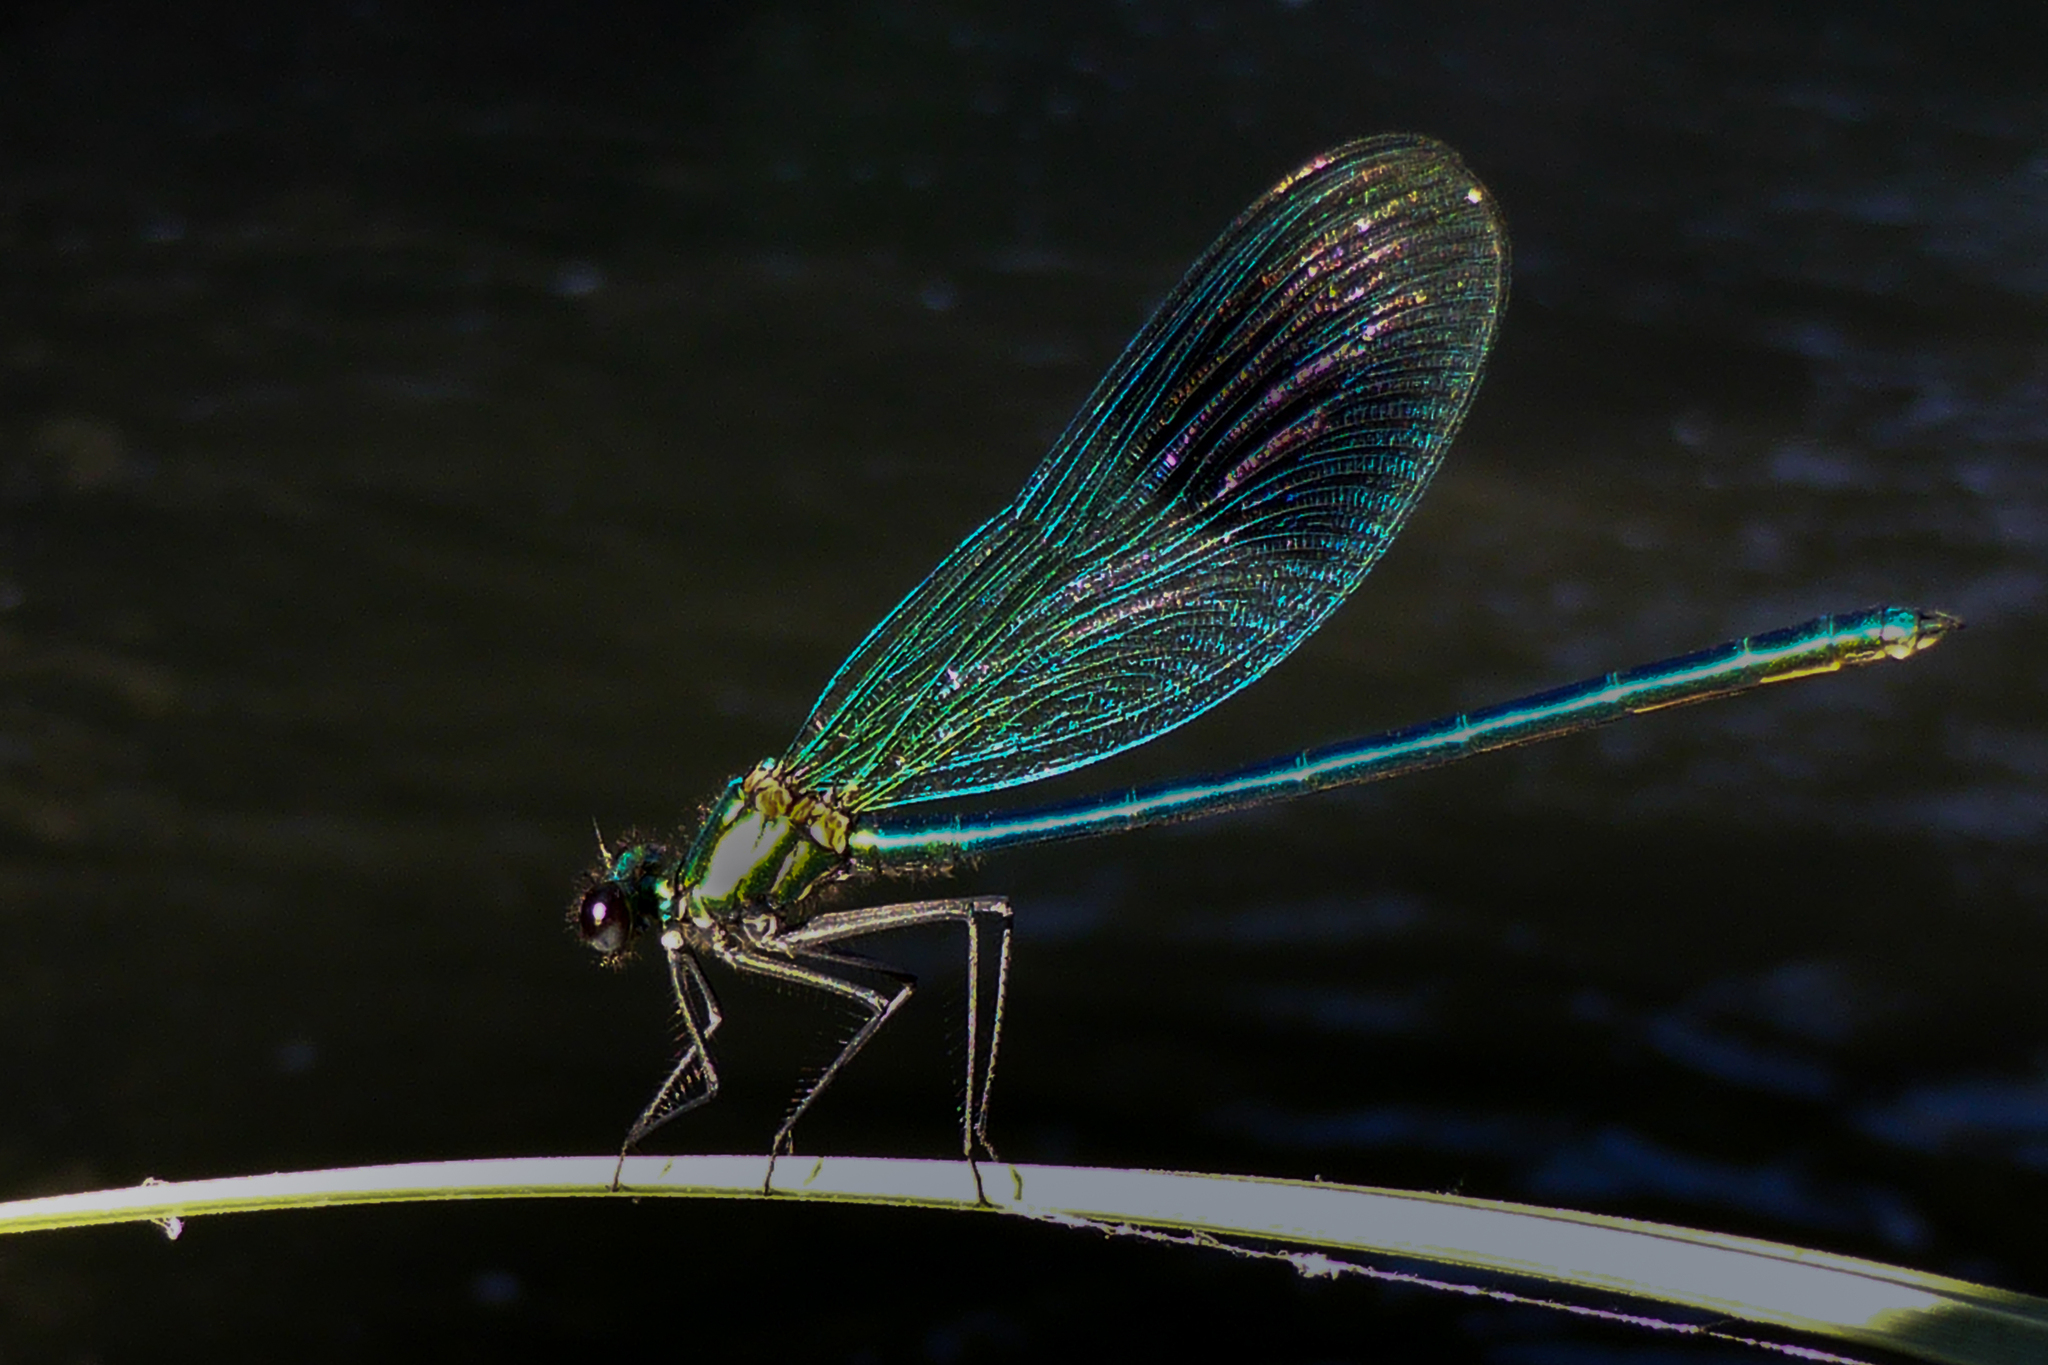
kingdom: Animalia
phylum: Arthropoda
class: Insecta
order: Odonata
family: Calopterygidae
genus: Calopteryx
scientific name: Calopteryx splendens
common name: Banded demoiselle
